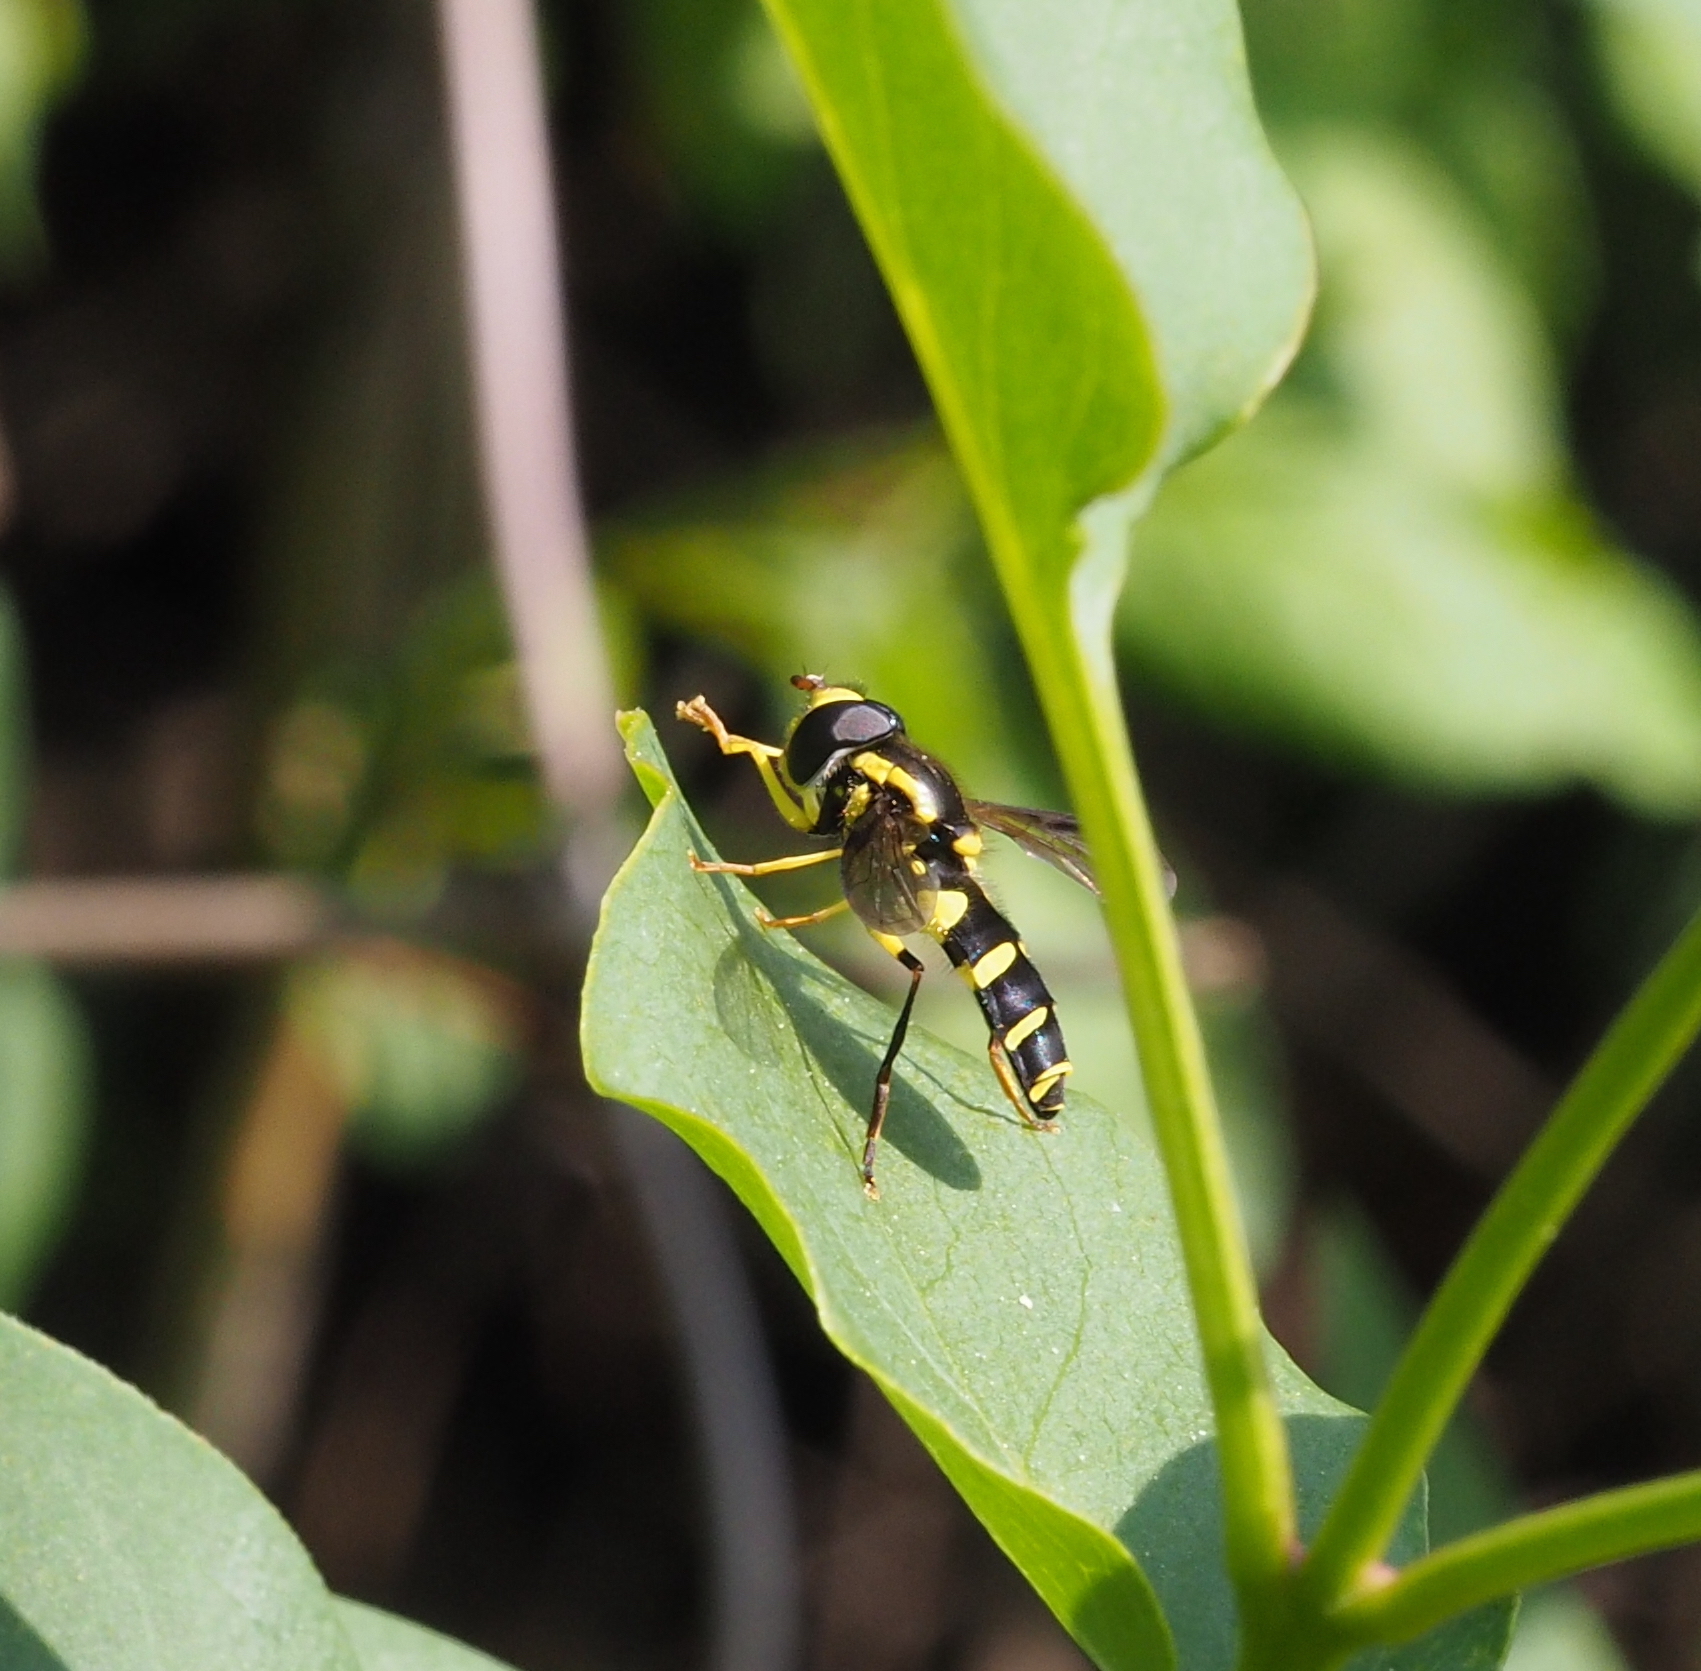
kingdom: Animalia
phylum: Arthropoda
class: Insecta
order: Diptera
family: Syrphidae
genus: Philhelius
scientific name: Philhelius dives
